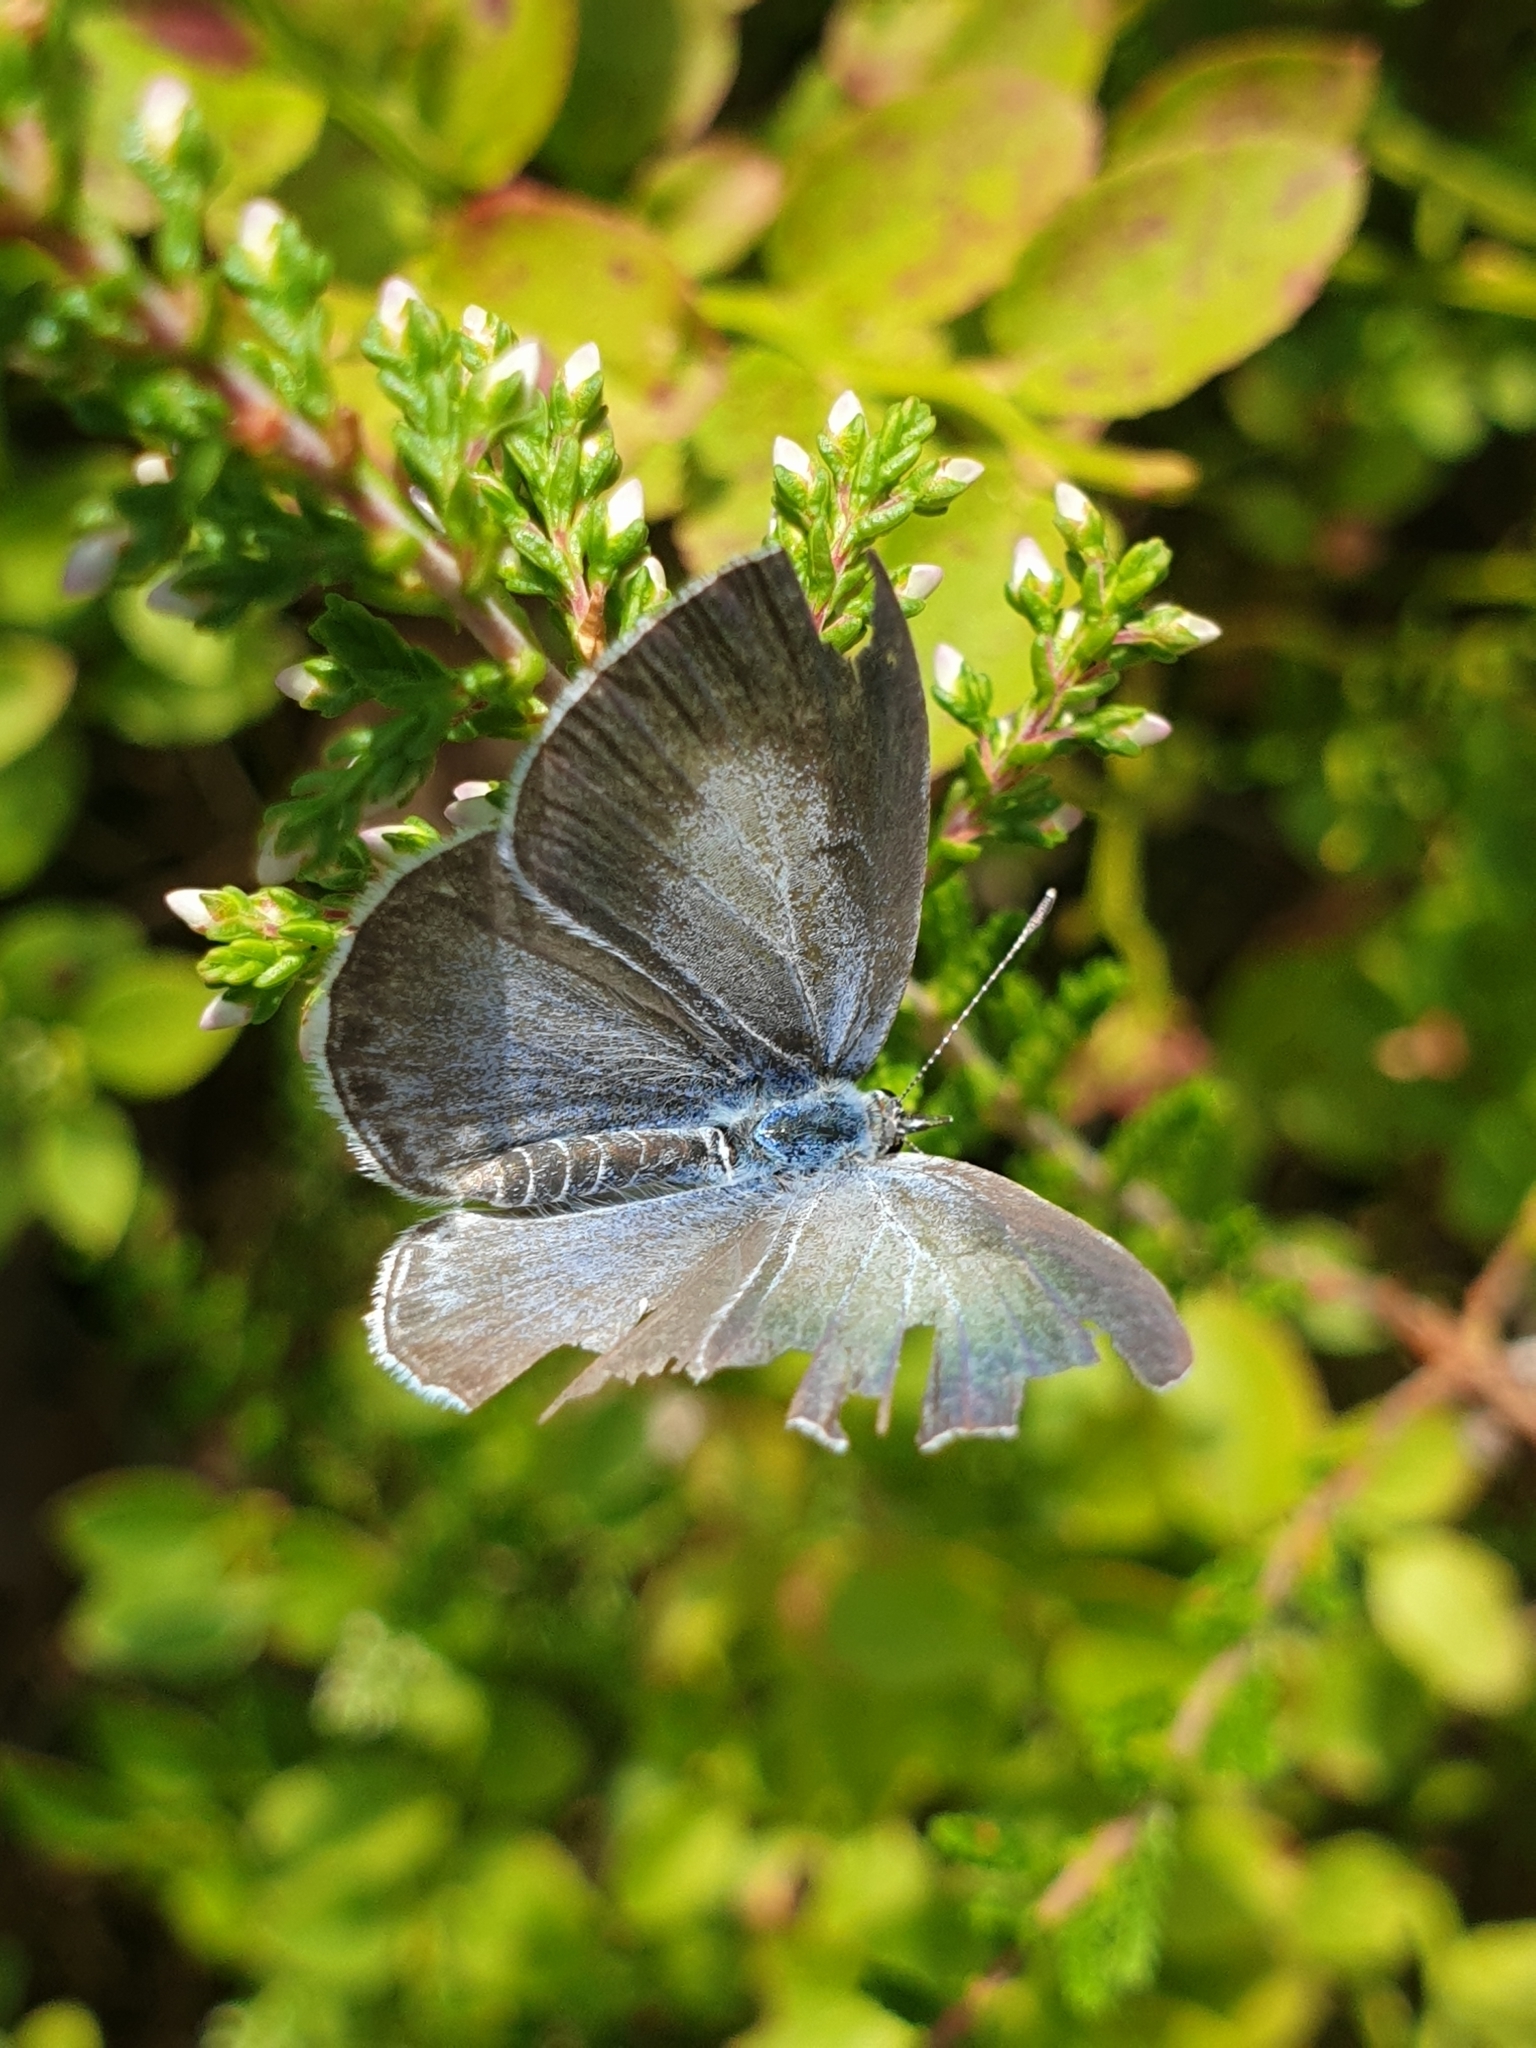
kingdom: Animalia
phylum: Arthropoda
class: Insecta
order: Lepidoptera
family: Lycaenidae
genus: Celastrina
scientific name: Celastrina argiolus
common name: Holly blue
